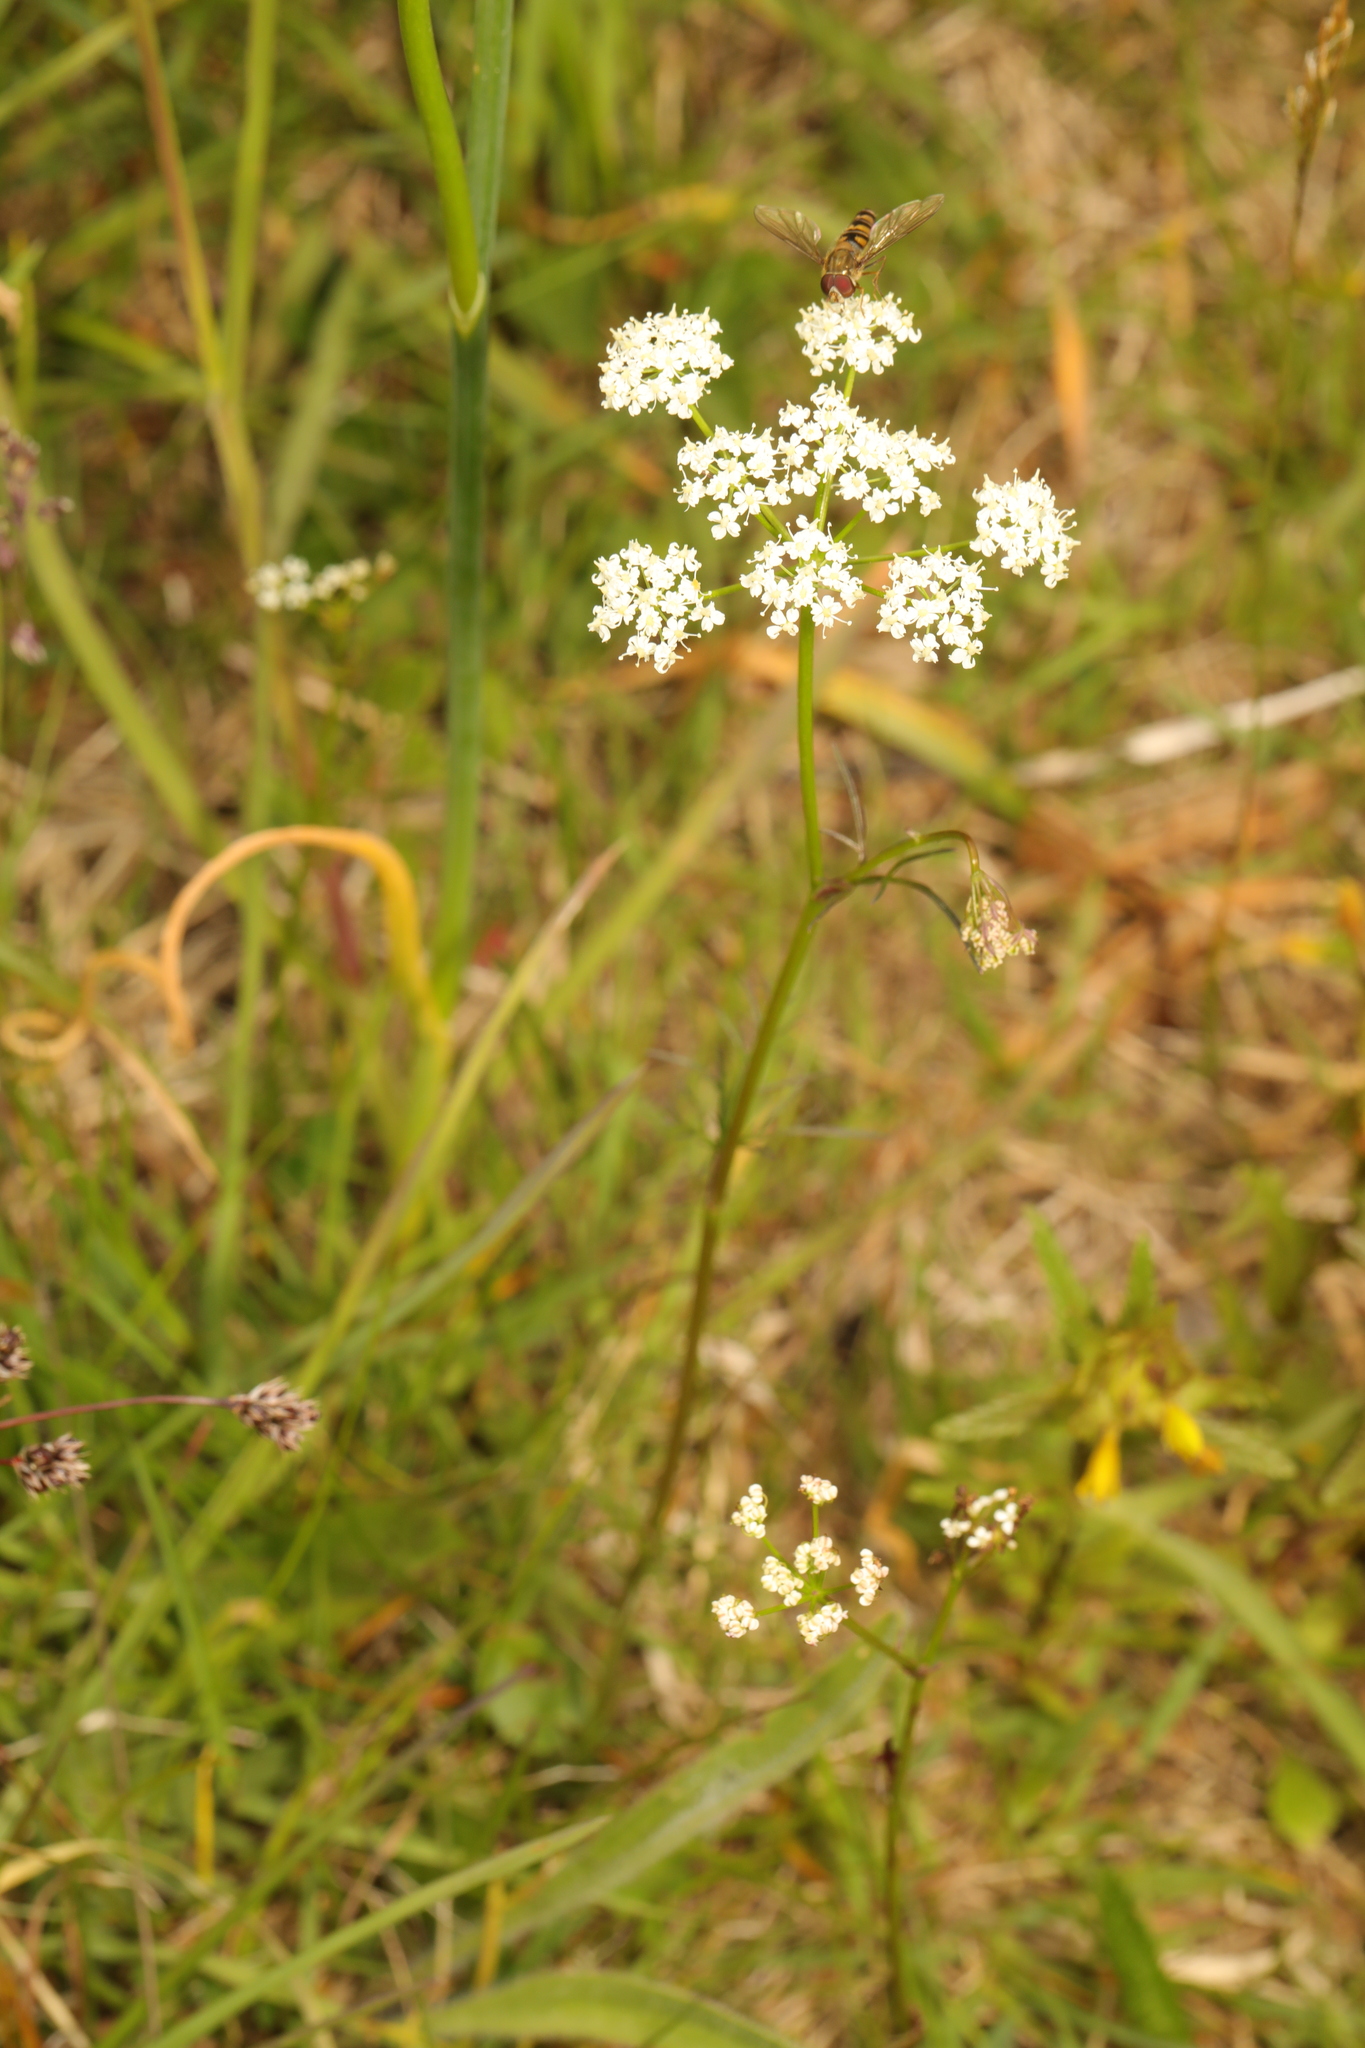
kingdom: Plantae
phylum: Tracheophyta
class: Magnoliopsida
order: Apiales
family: Apiaceae
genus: Conopodium
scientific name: Conopodium majus
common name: Pignut
